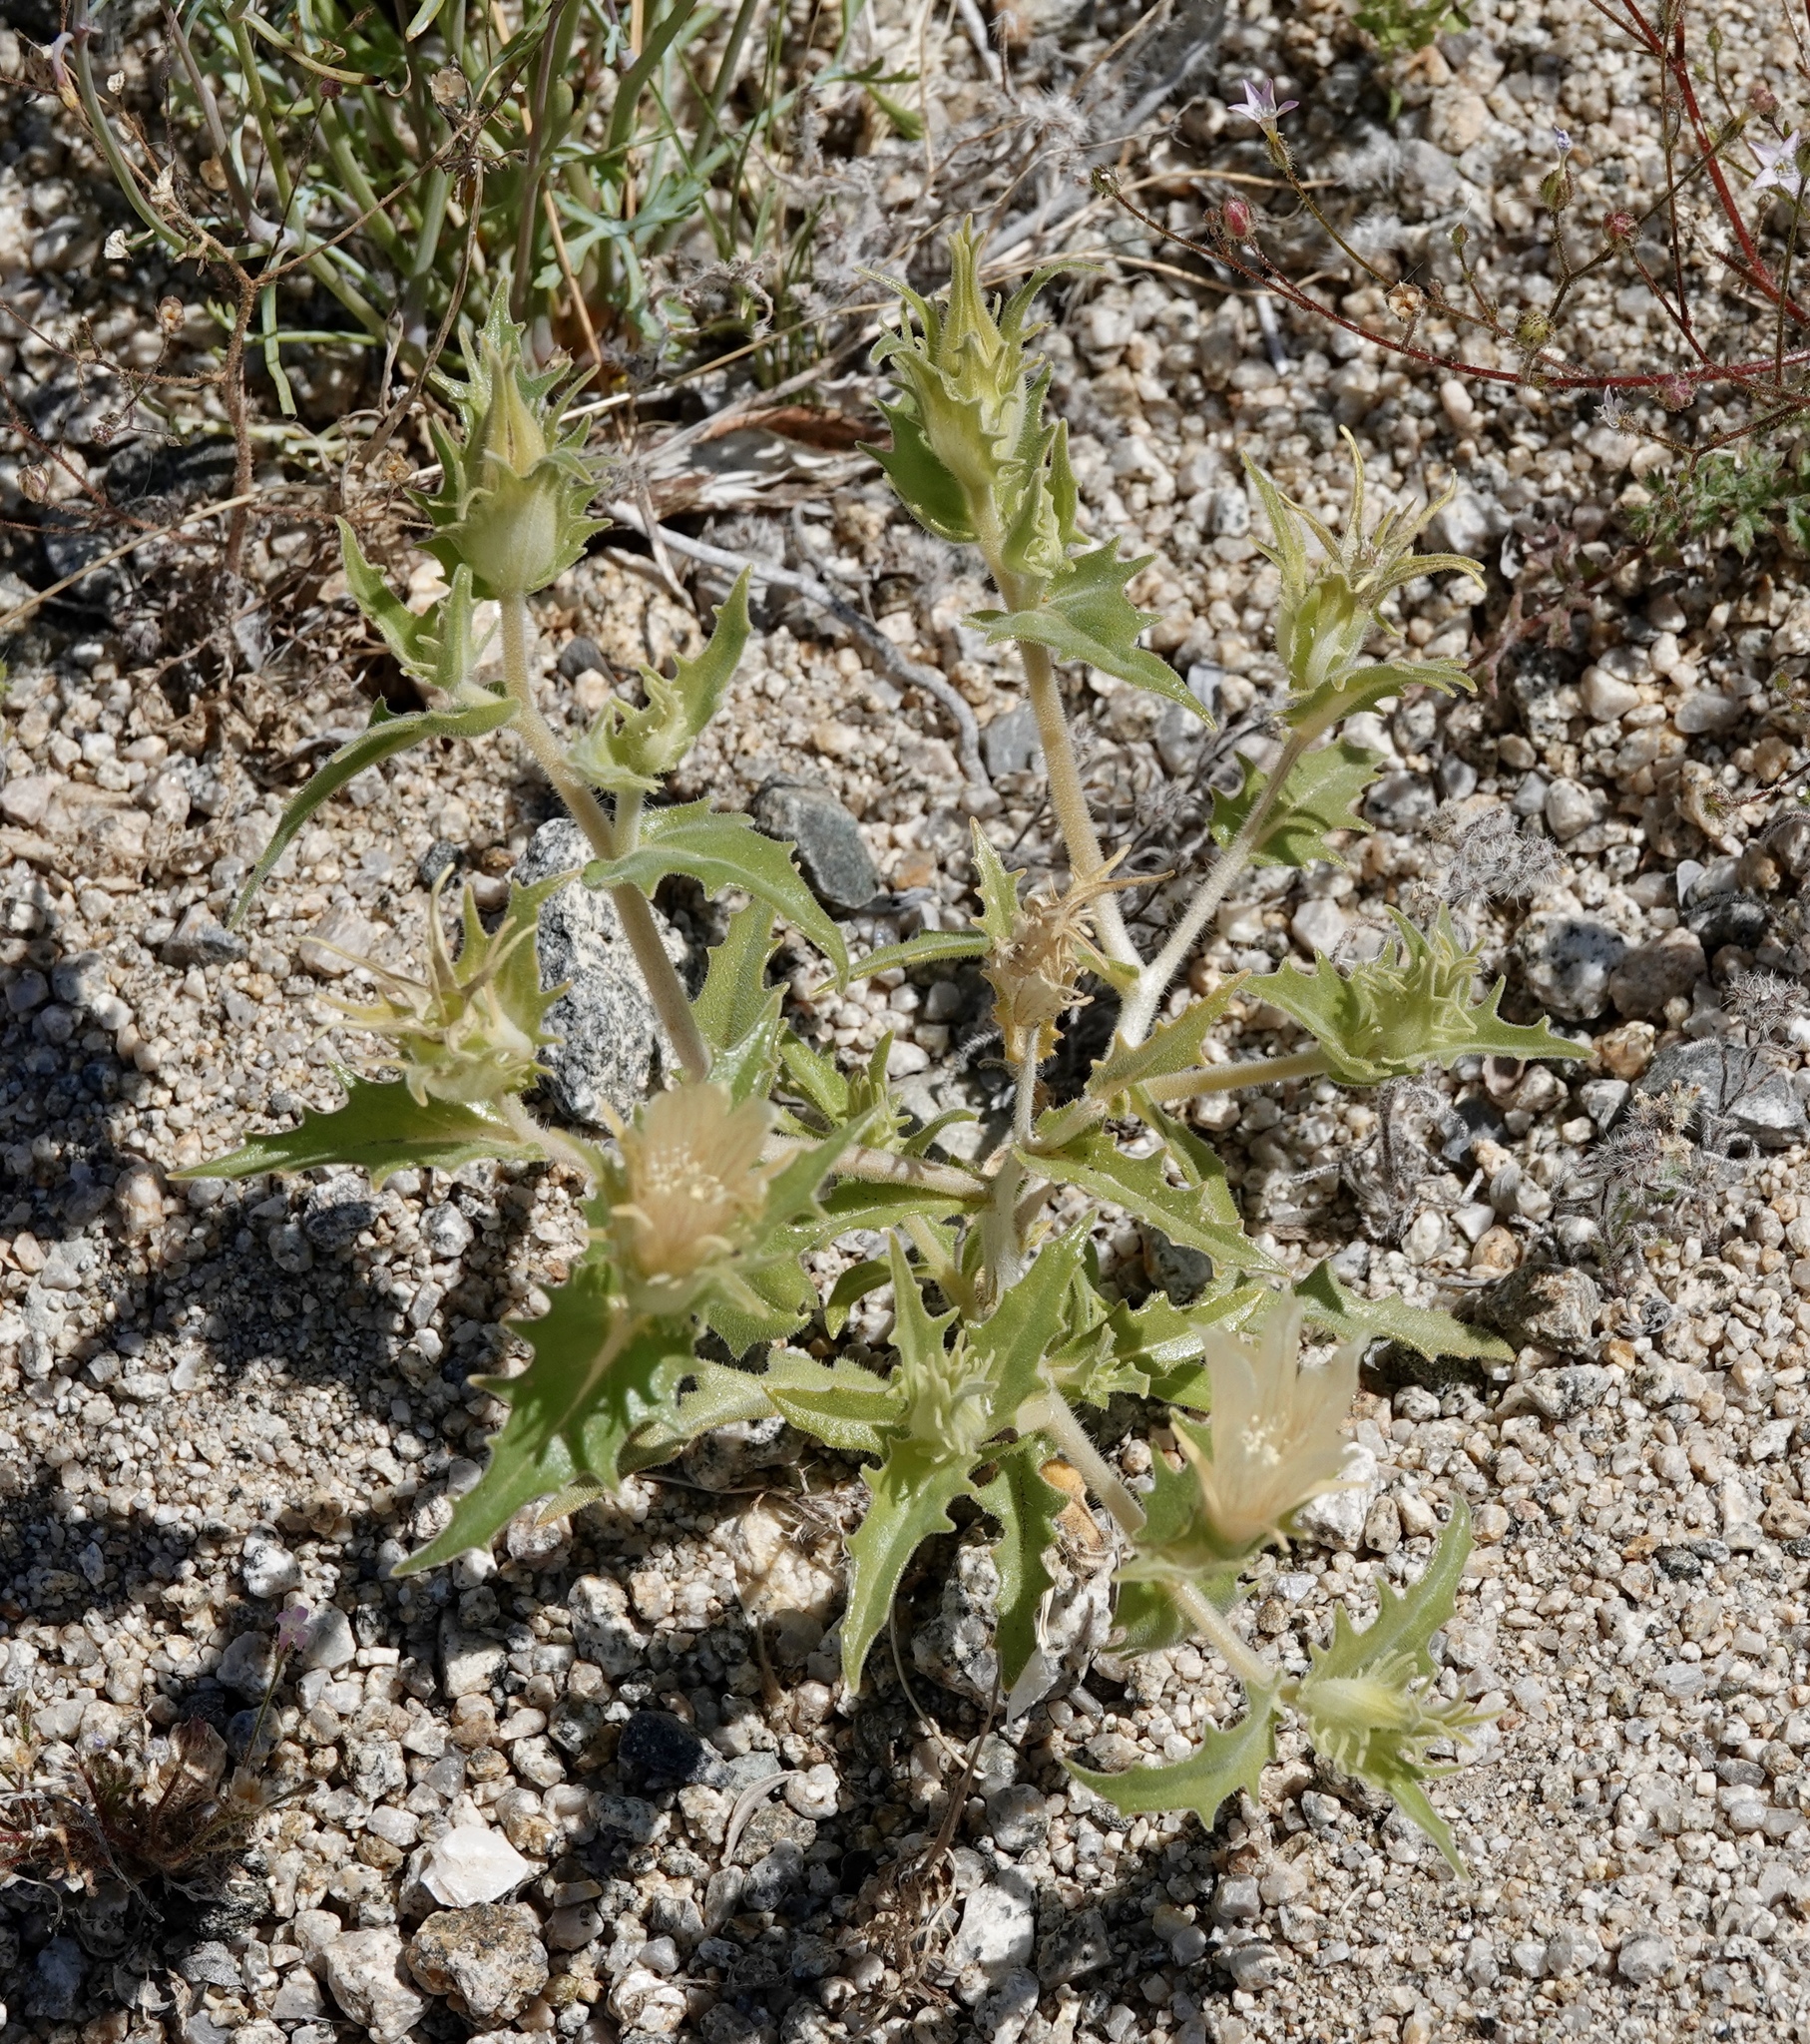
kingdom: Plantae
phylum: Tracheophyta
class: Magnoliopsida
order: Cornales
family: Loasaceae
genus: Mentzelia
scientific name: Mentzelia involucrata
